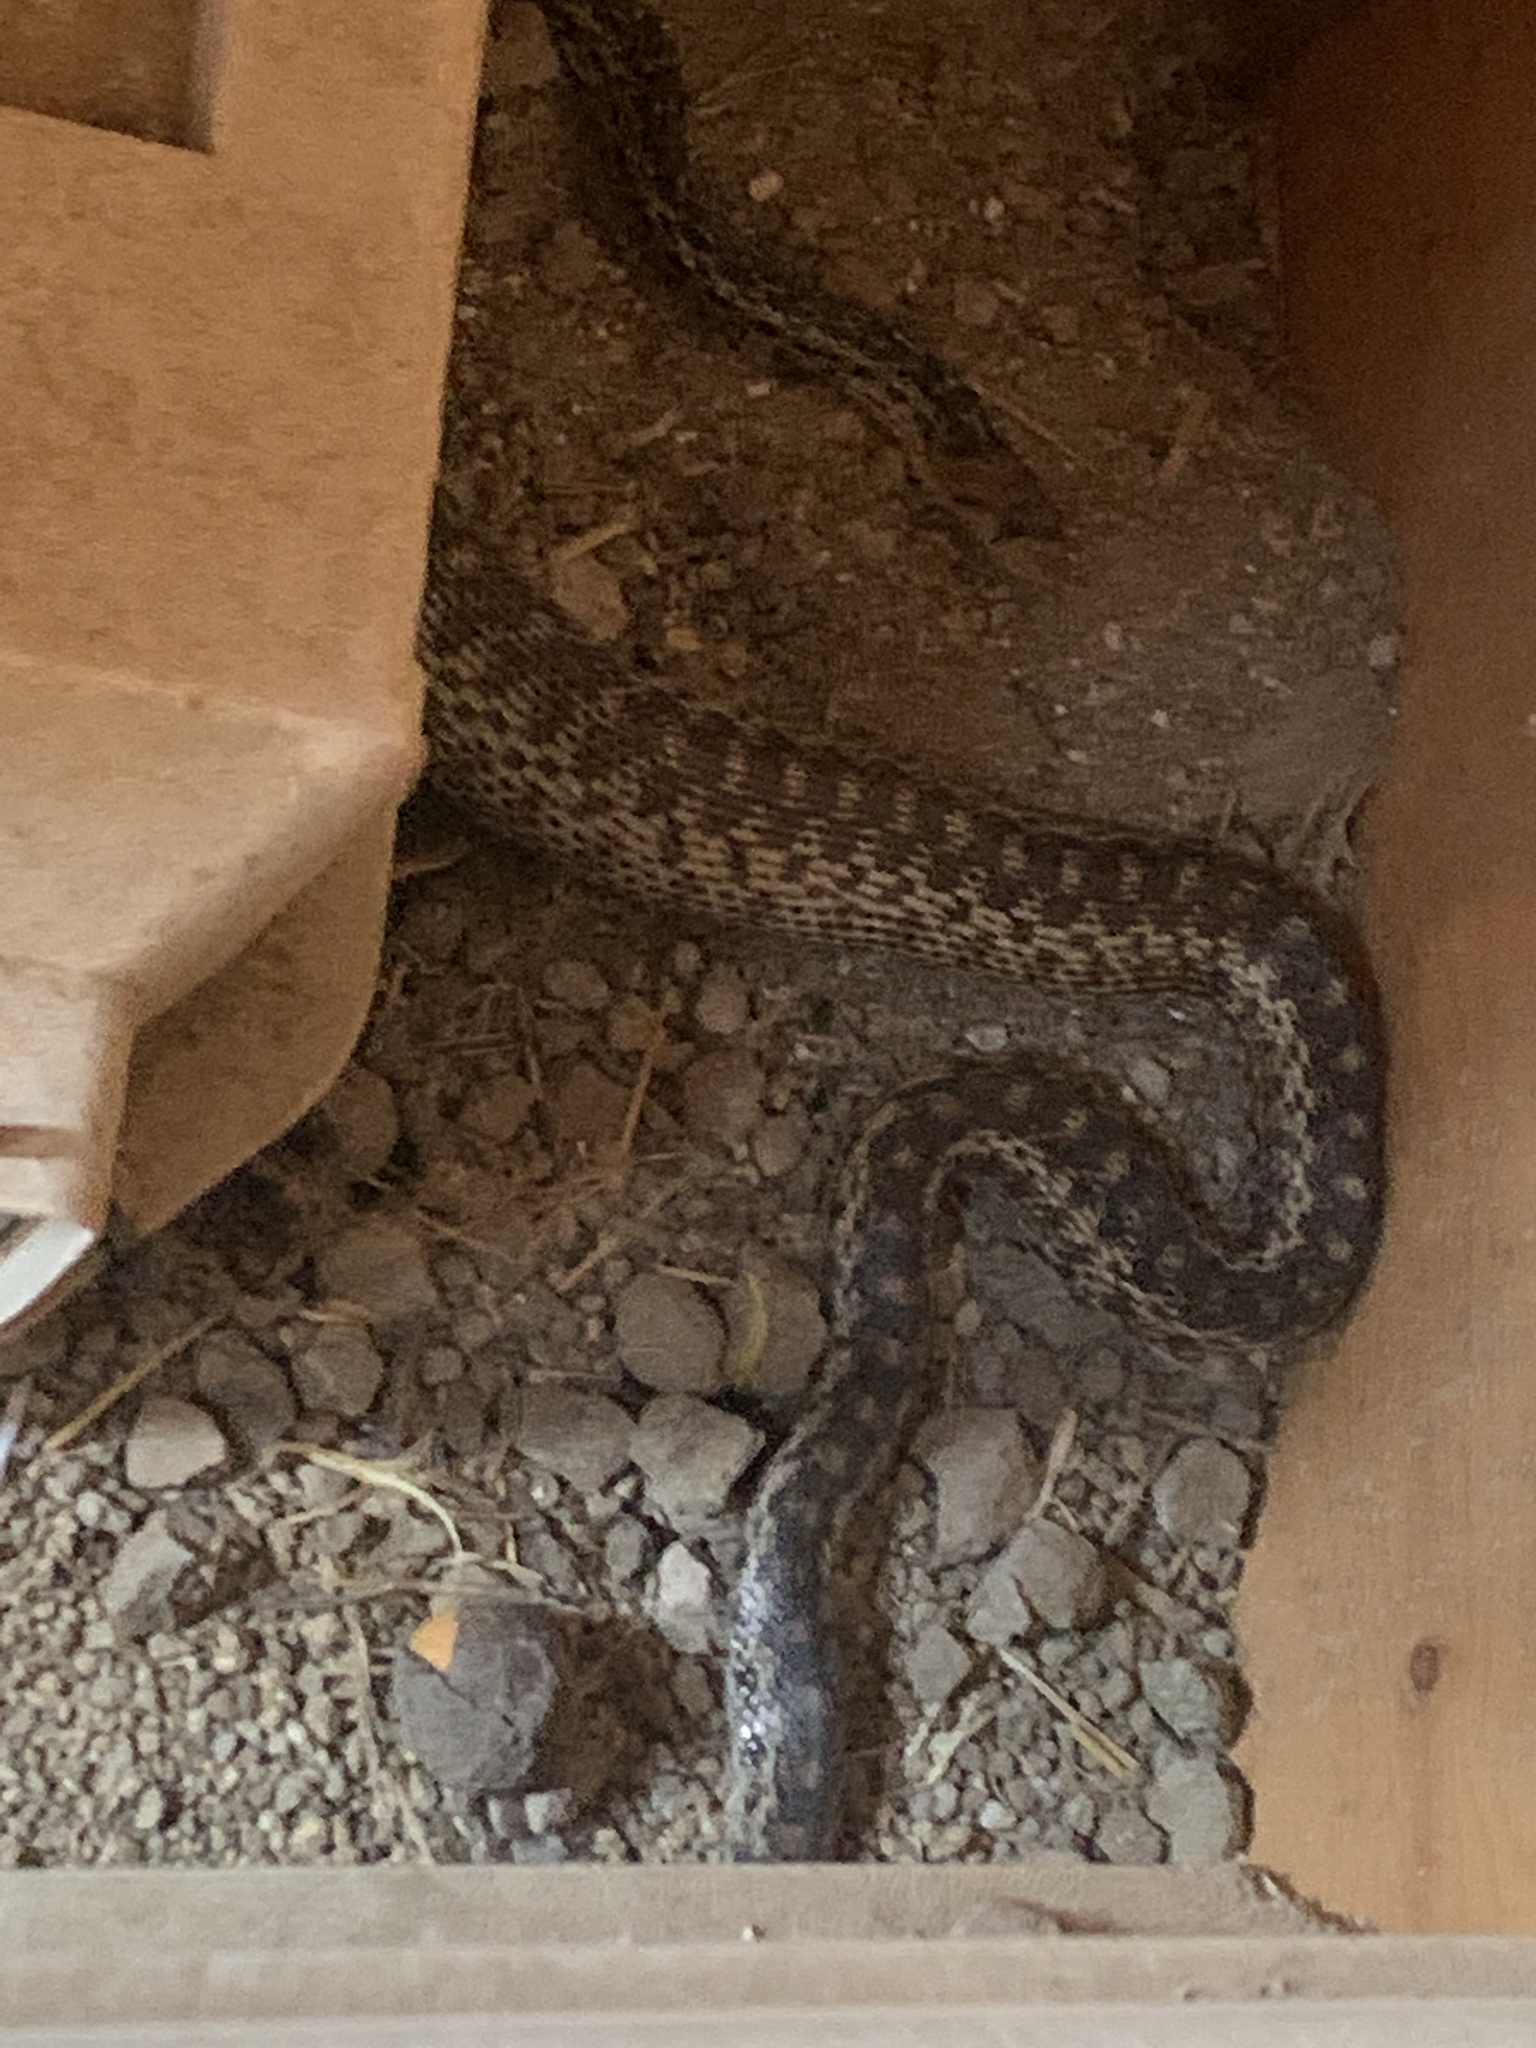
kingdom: Animalia
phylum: Chordata
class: Squamata
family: Colubridae
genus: Pituophis
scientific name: Pituophis catenifer
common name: Gopher snake
